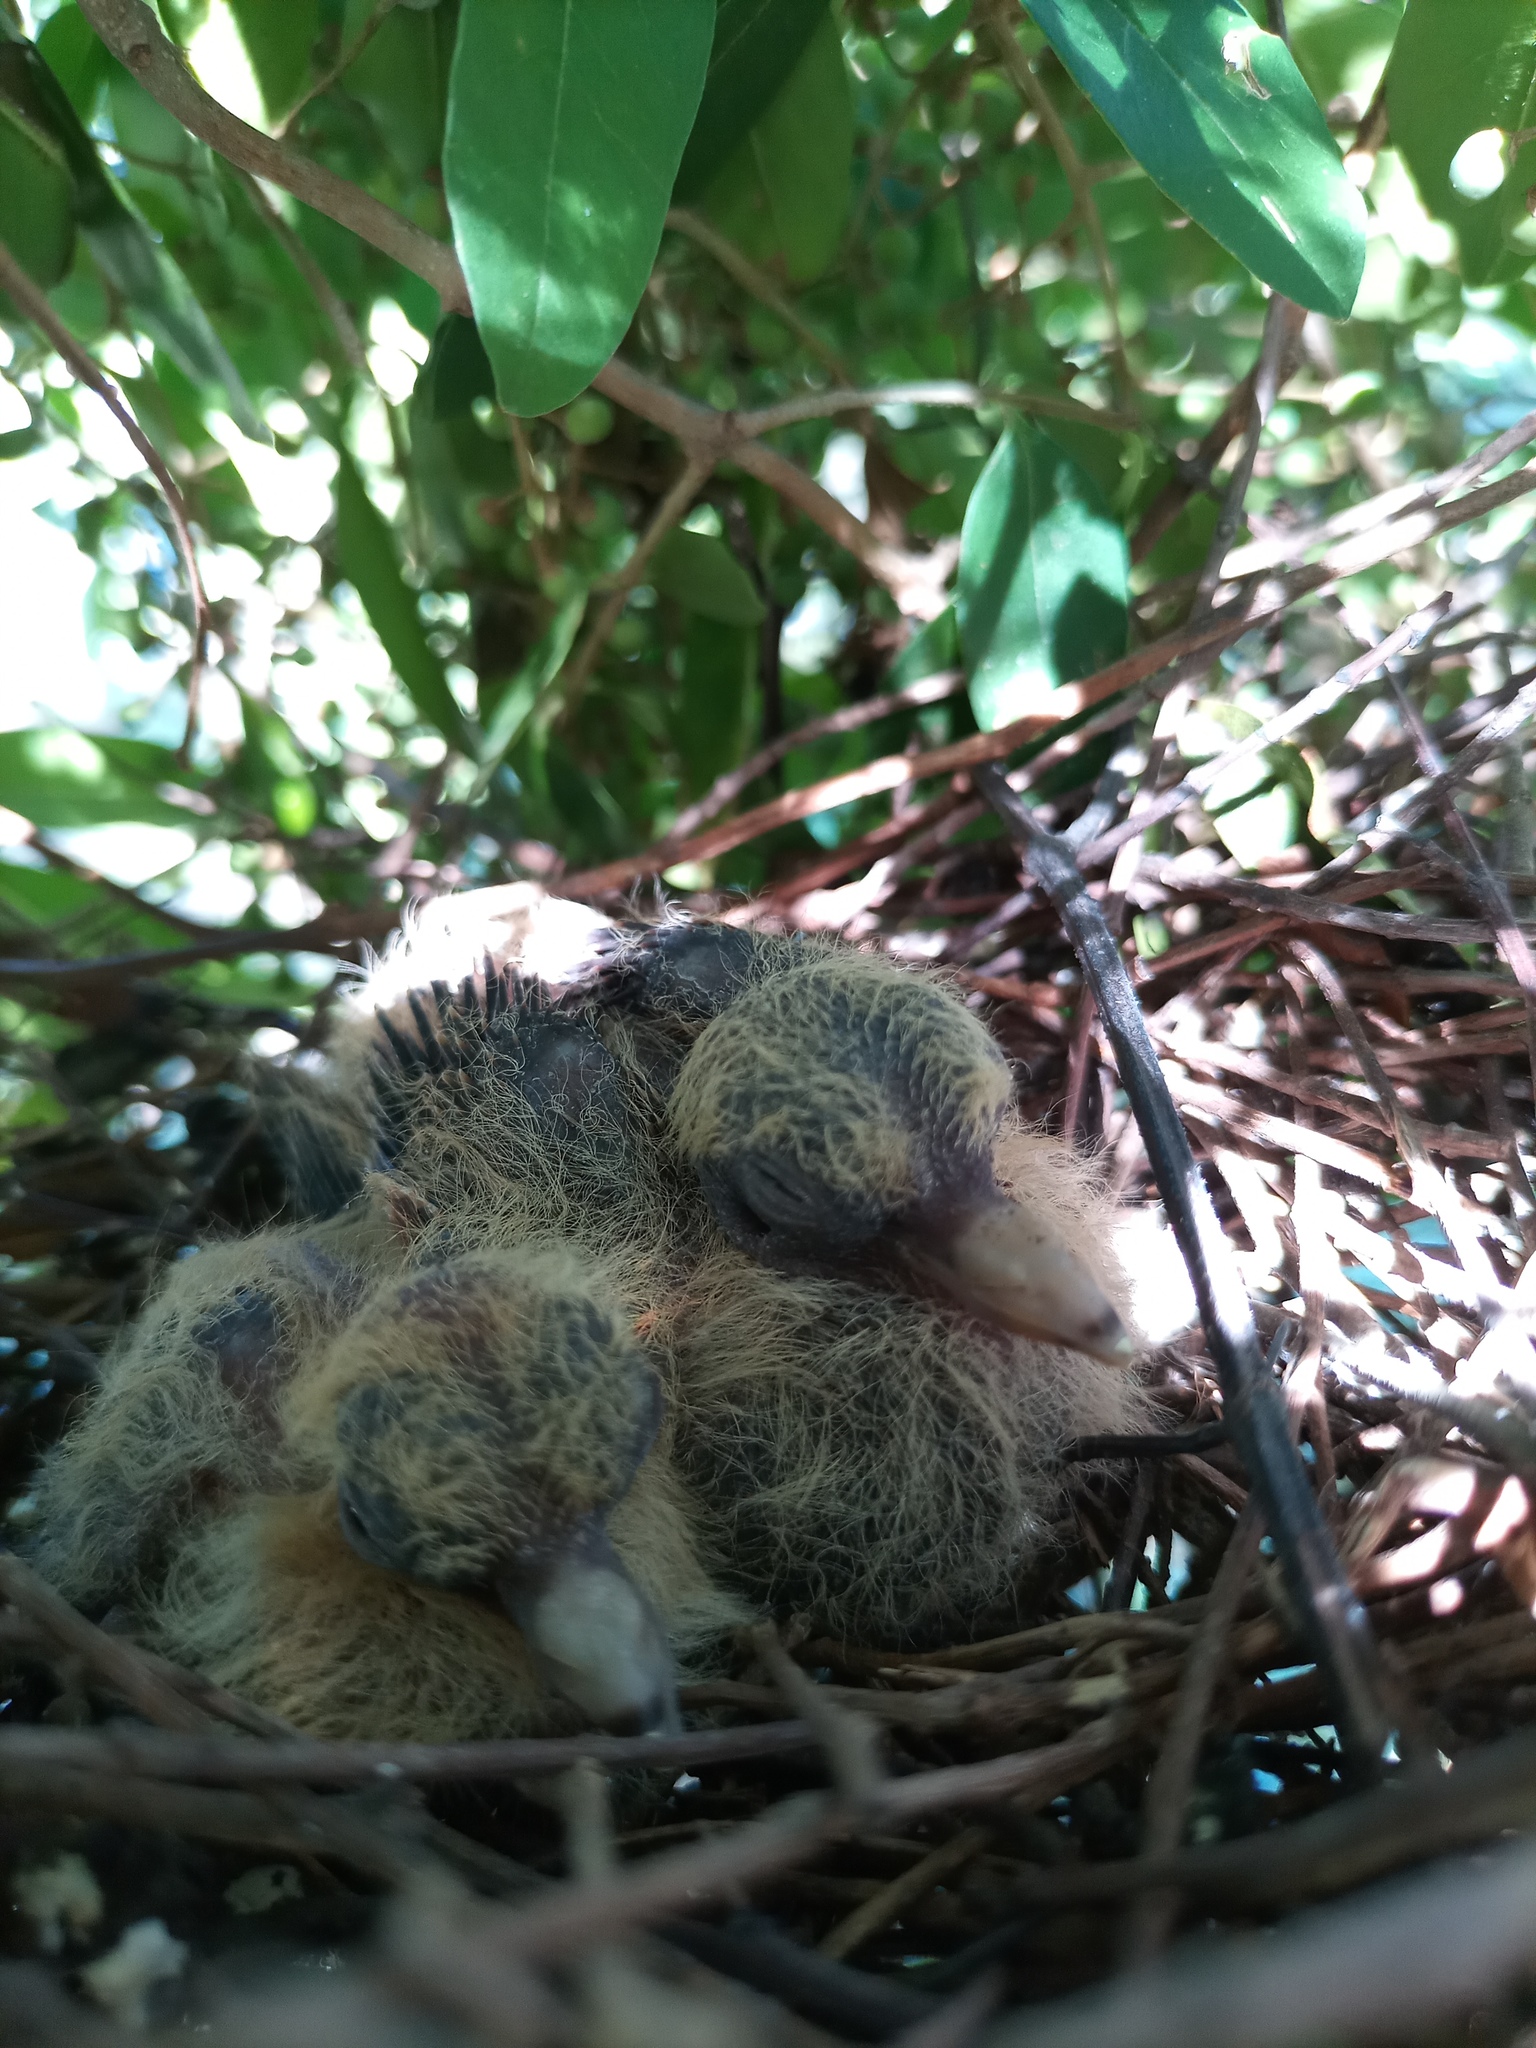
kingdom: Animalia
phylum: Chordata
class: Aves
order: Columbiformes
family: Columbidae
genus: Zenaida
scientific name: Zenaida auriculata
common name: Eared dove
